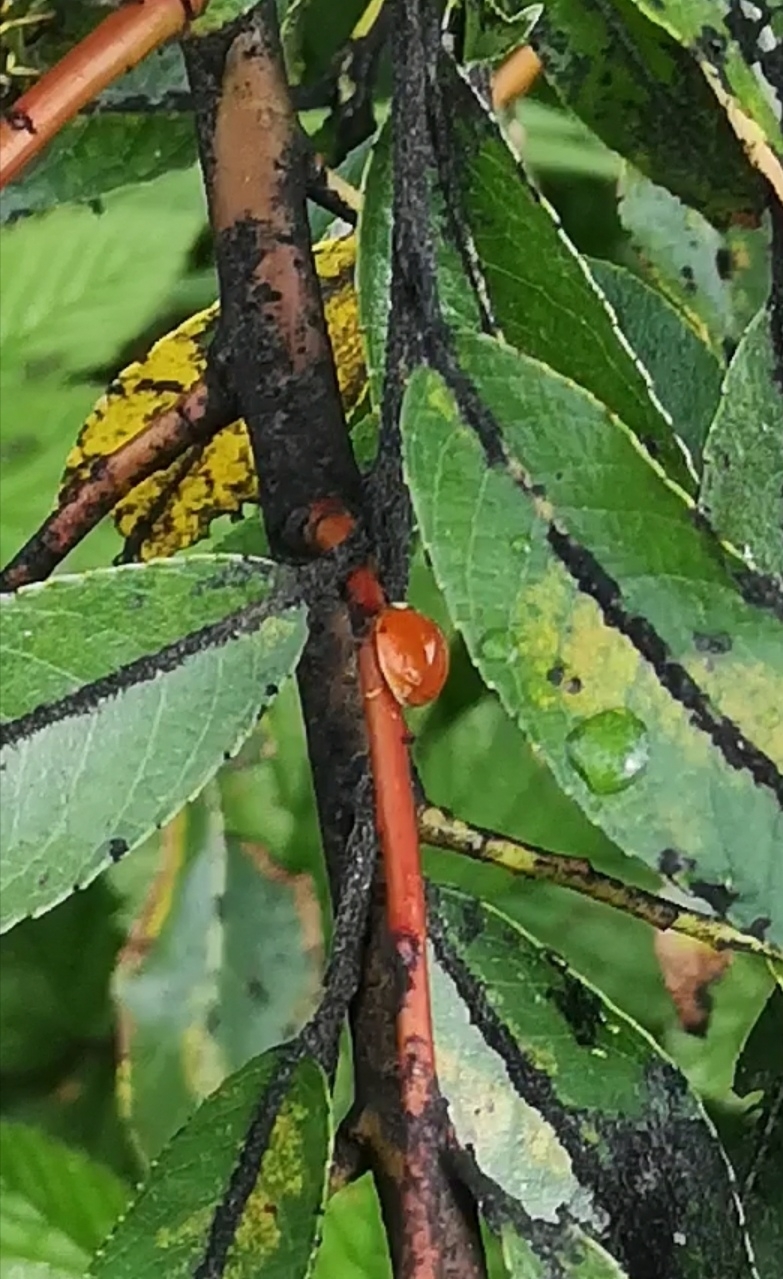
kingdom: Animalia
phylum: Arthropoda
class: Insecta
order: Coleoptera
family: Coccinellidae
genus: Harmonia
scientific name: Harmonia axyridis
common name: Harlequin ladybird
